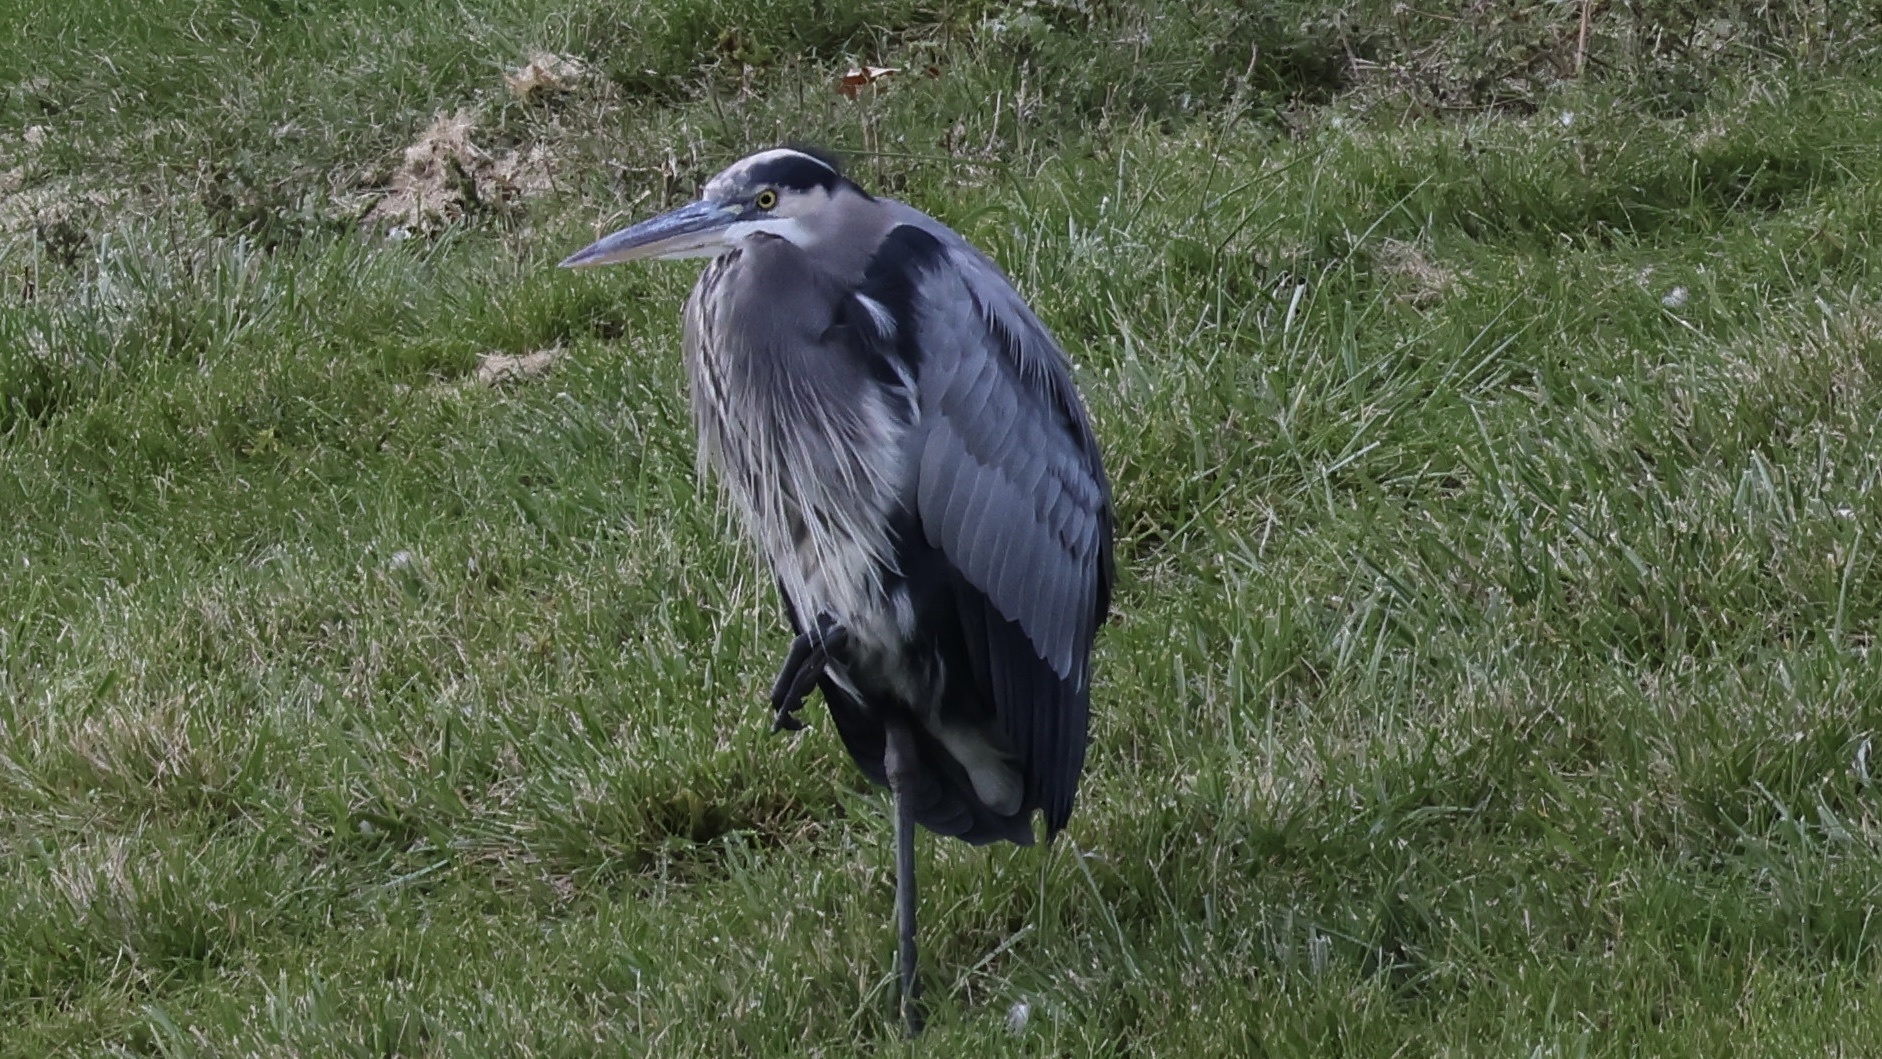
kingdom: Animalia
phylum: Chordata
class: Aves
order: Pelecaniformes
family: Ardeidae
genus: Ardea
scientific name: Ardea herodias
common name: Great blue heron
